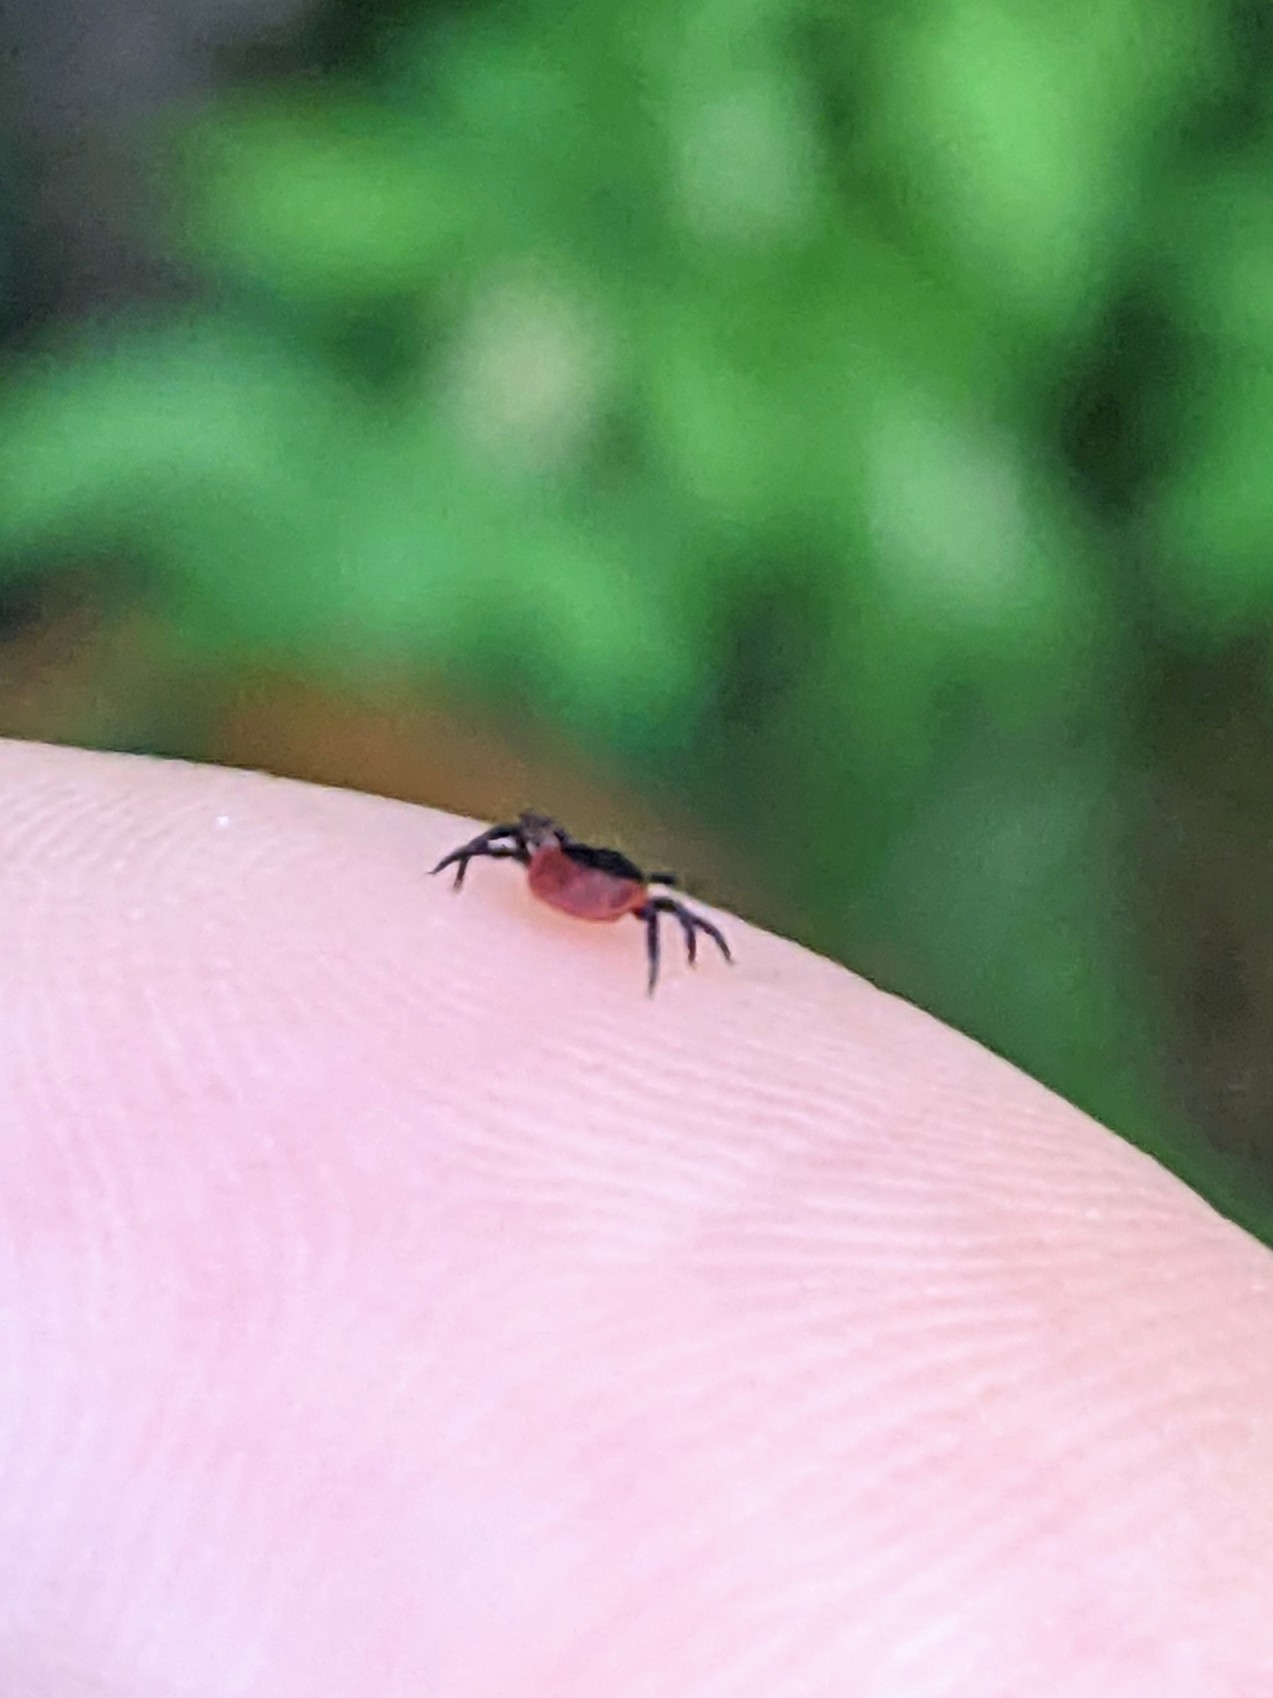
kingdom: Animalia
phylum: Arthropoda
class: Arachnida
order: Ixodida
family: Ixodidae
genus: Ixodes
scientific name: Ixodes ricinus
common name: Castor bean tick
